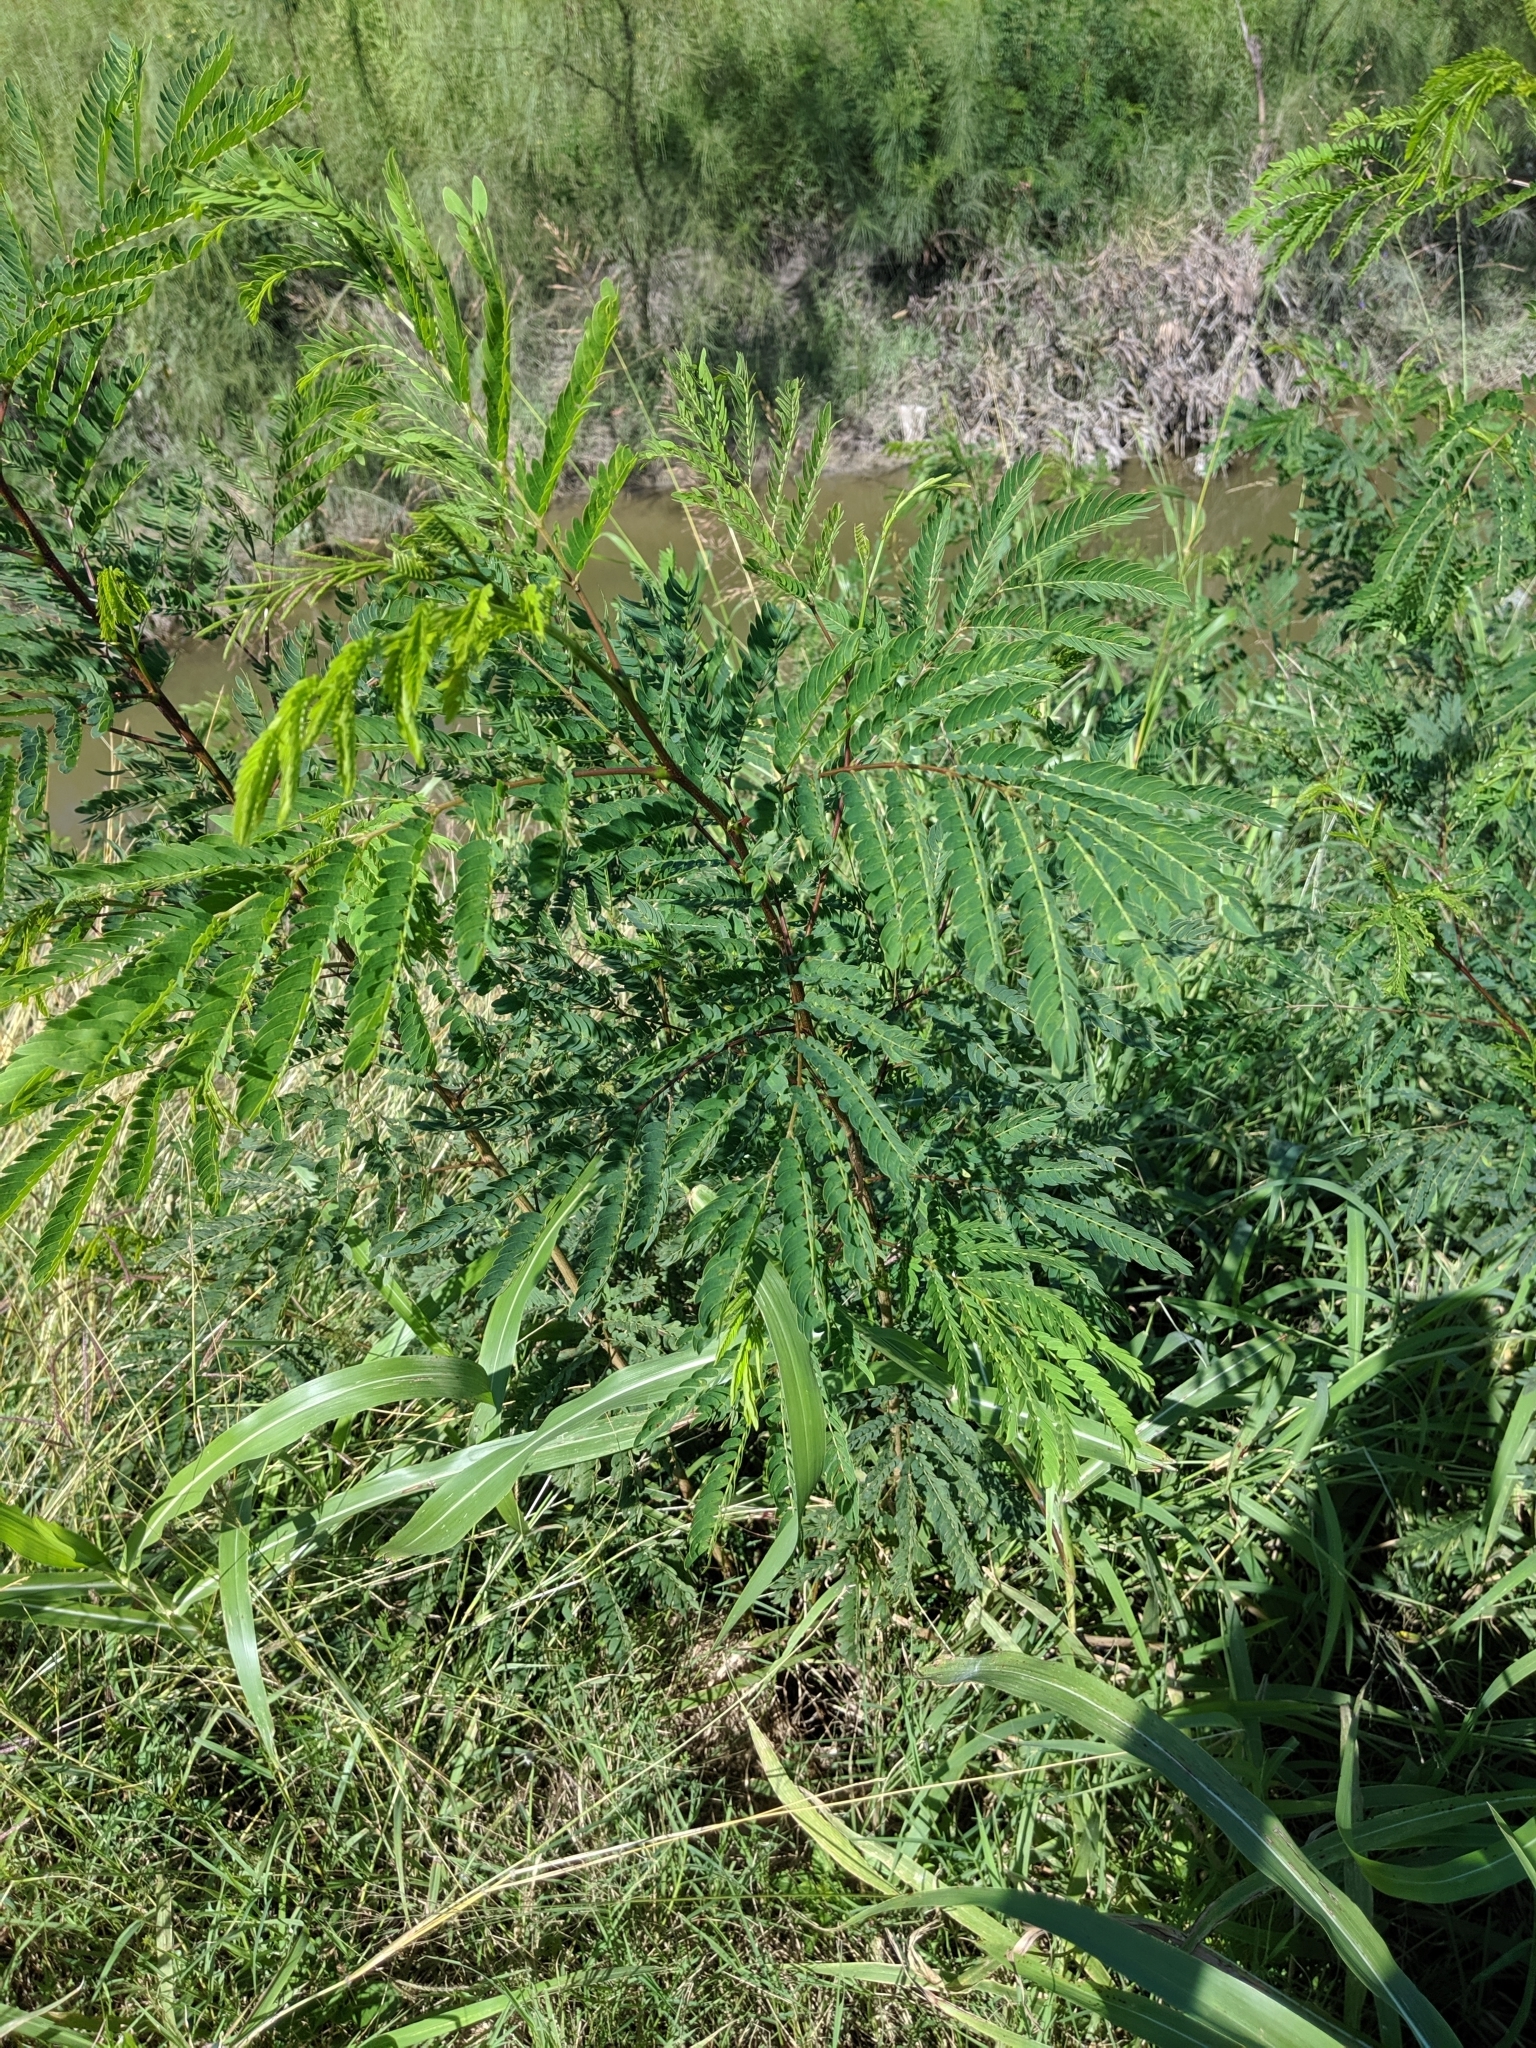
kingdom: Plantae
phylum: Tracheophyta
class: Magnoliopsida
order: Fabales
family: Fabaceae
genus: Leucaena
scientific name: Leucaena leucocephala
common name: White leadtree
